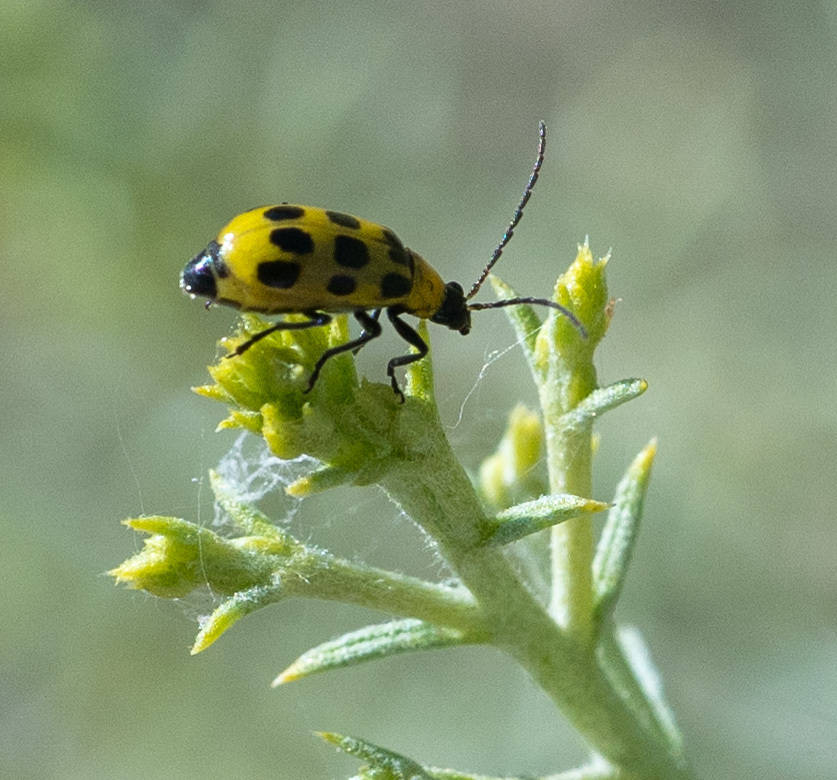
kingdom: Animalia
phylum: Arthropoda
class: Insecta
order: Coleoptera
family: Chrysomelidae
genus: Diabrotica
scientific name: Diabrotica undecimpunctata
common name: Spotted cucumber beetle
